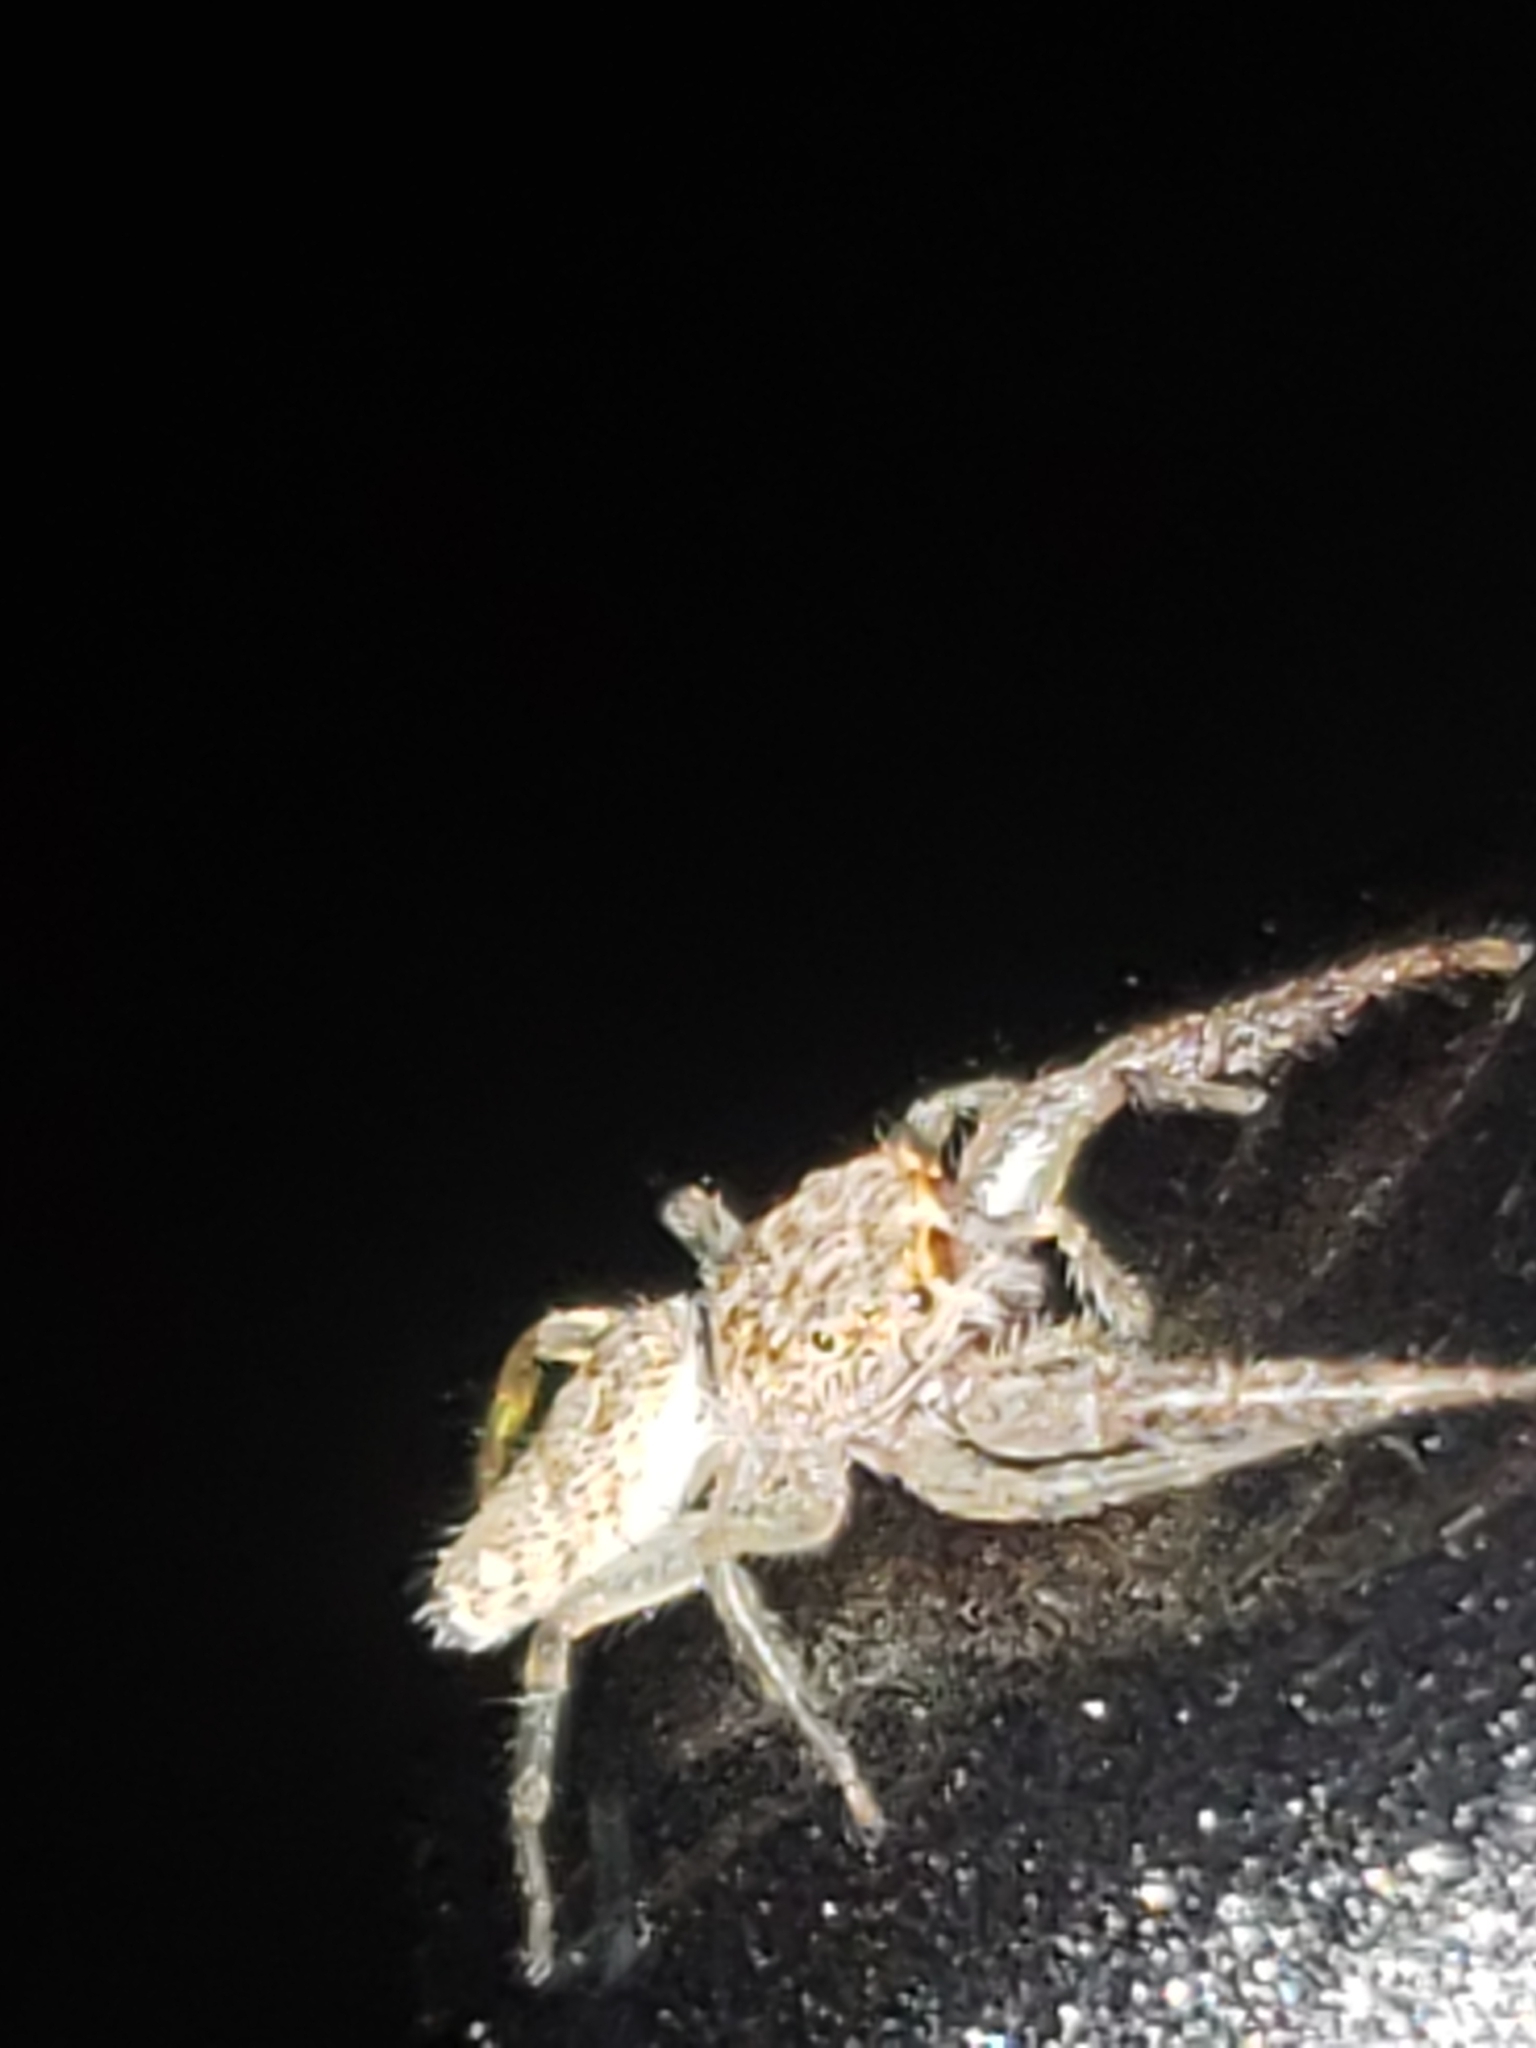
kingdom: Animalia
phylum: Arthropoda
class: Arachnida
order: Araneae
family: Salticidae
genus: Hentzia
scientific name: Hentzia mitrata
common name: White-jawed jumping spider
